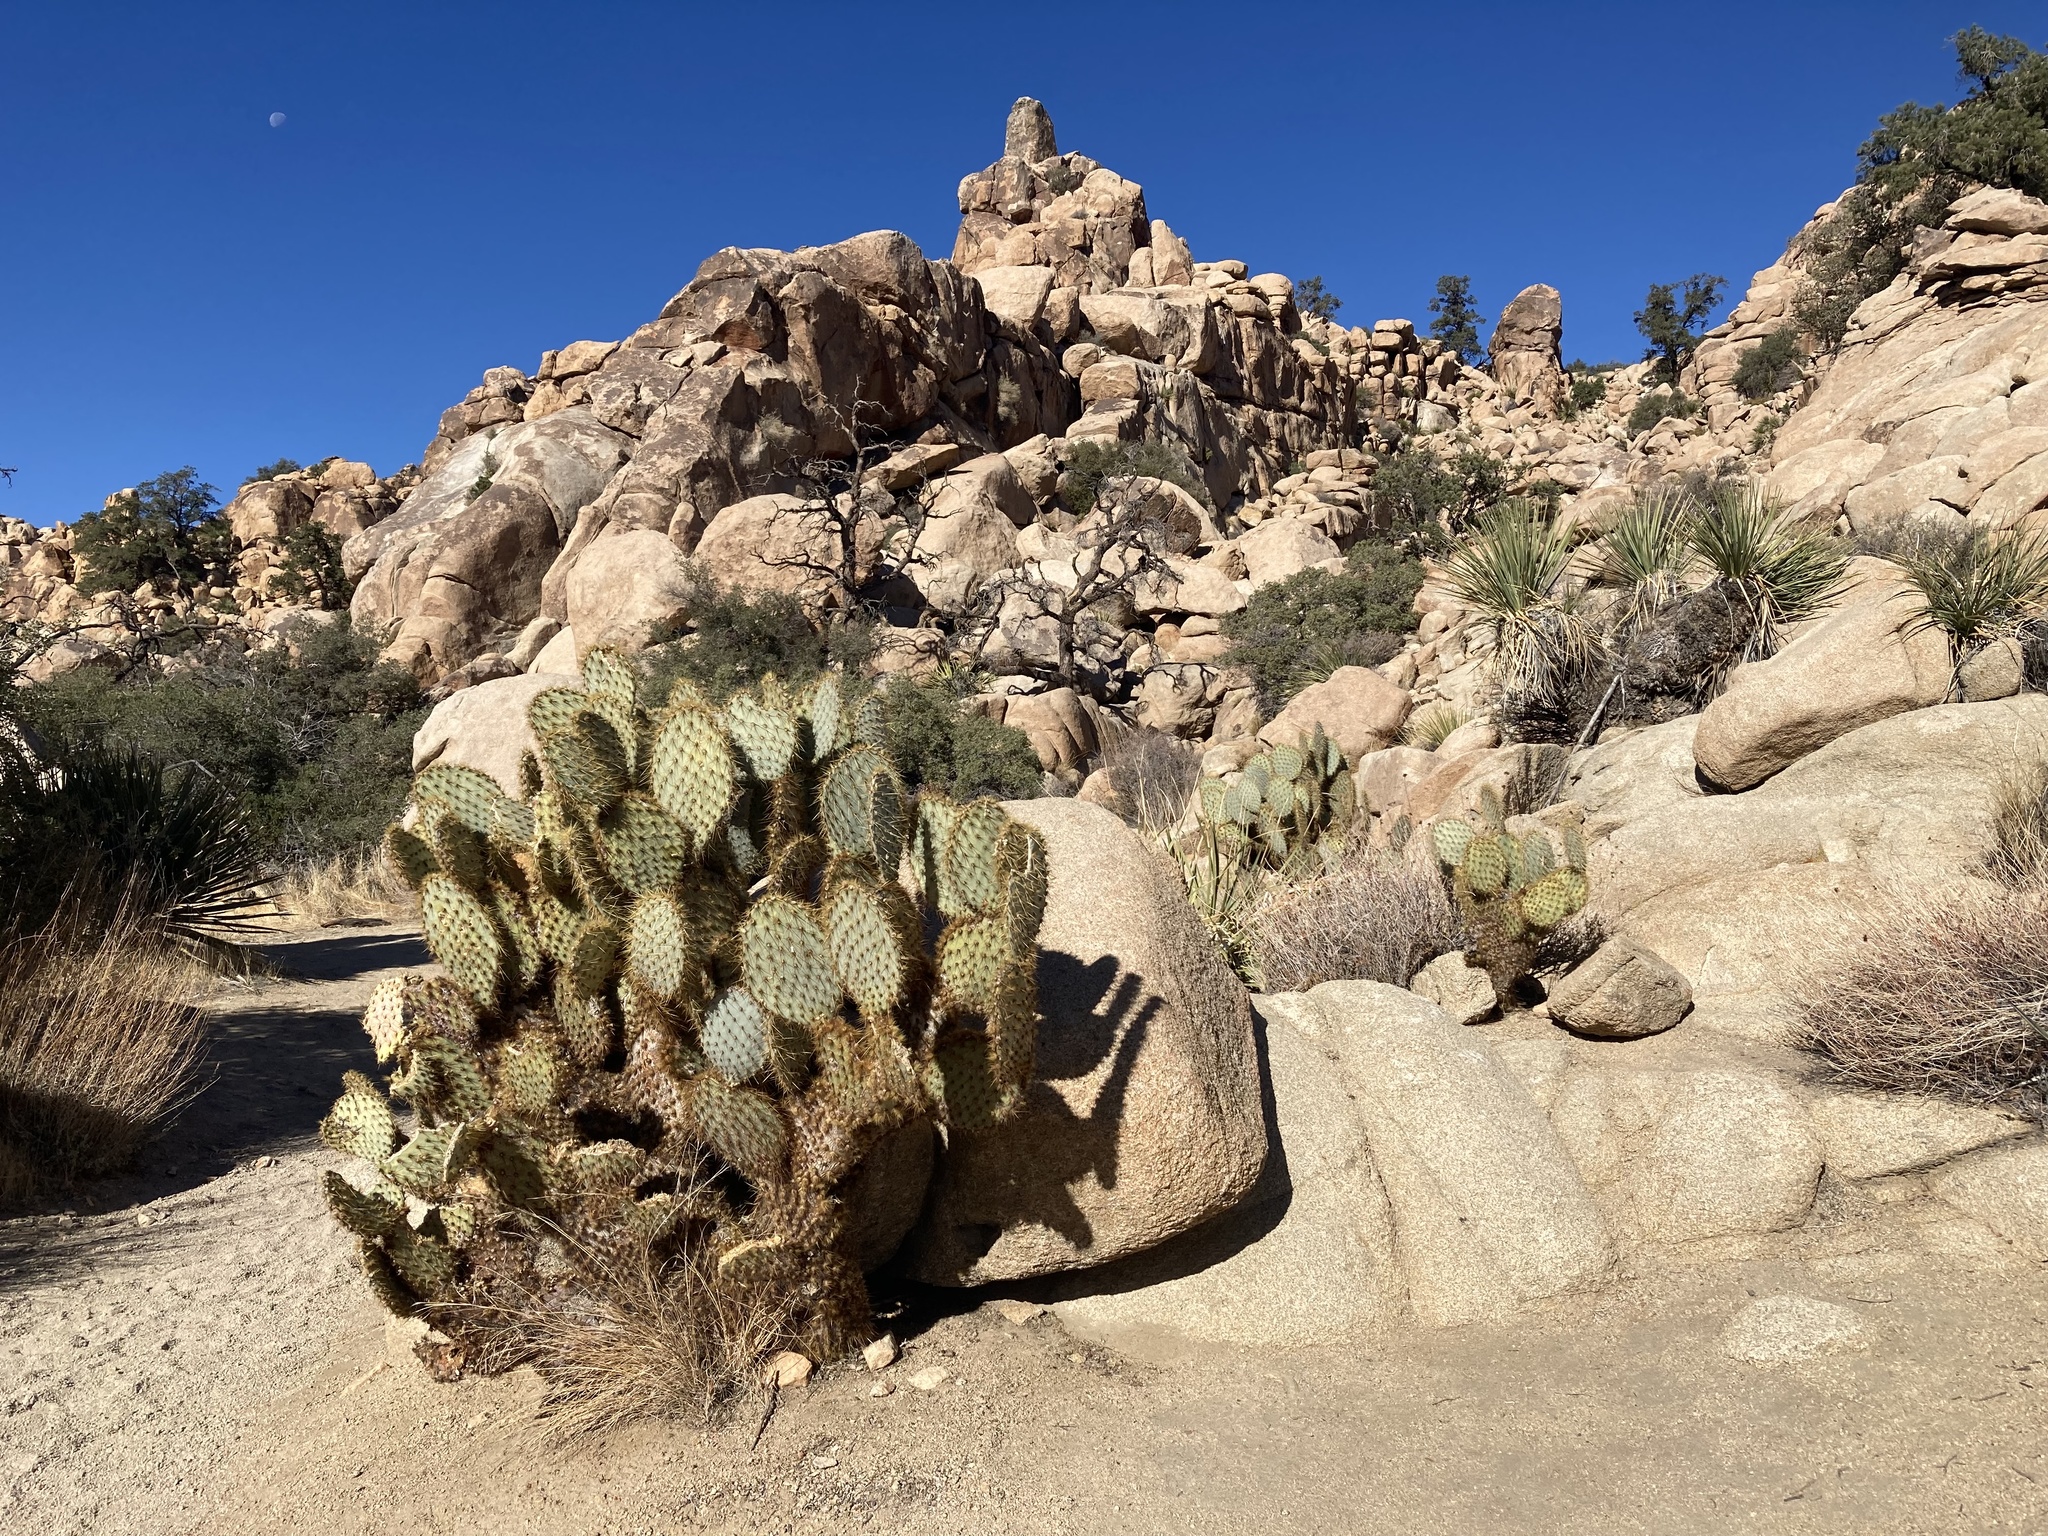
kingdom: Plantae
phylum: Tracheophyta
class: Magnoliopsida
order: Caryophyllales
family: Cactaceae
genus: Opuntia
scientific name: Opuntia chlorotica
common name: Dollar-joint prickly-pear
